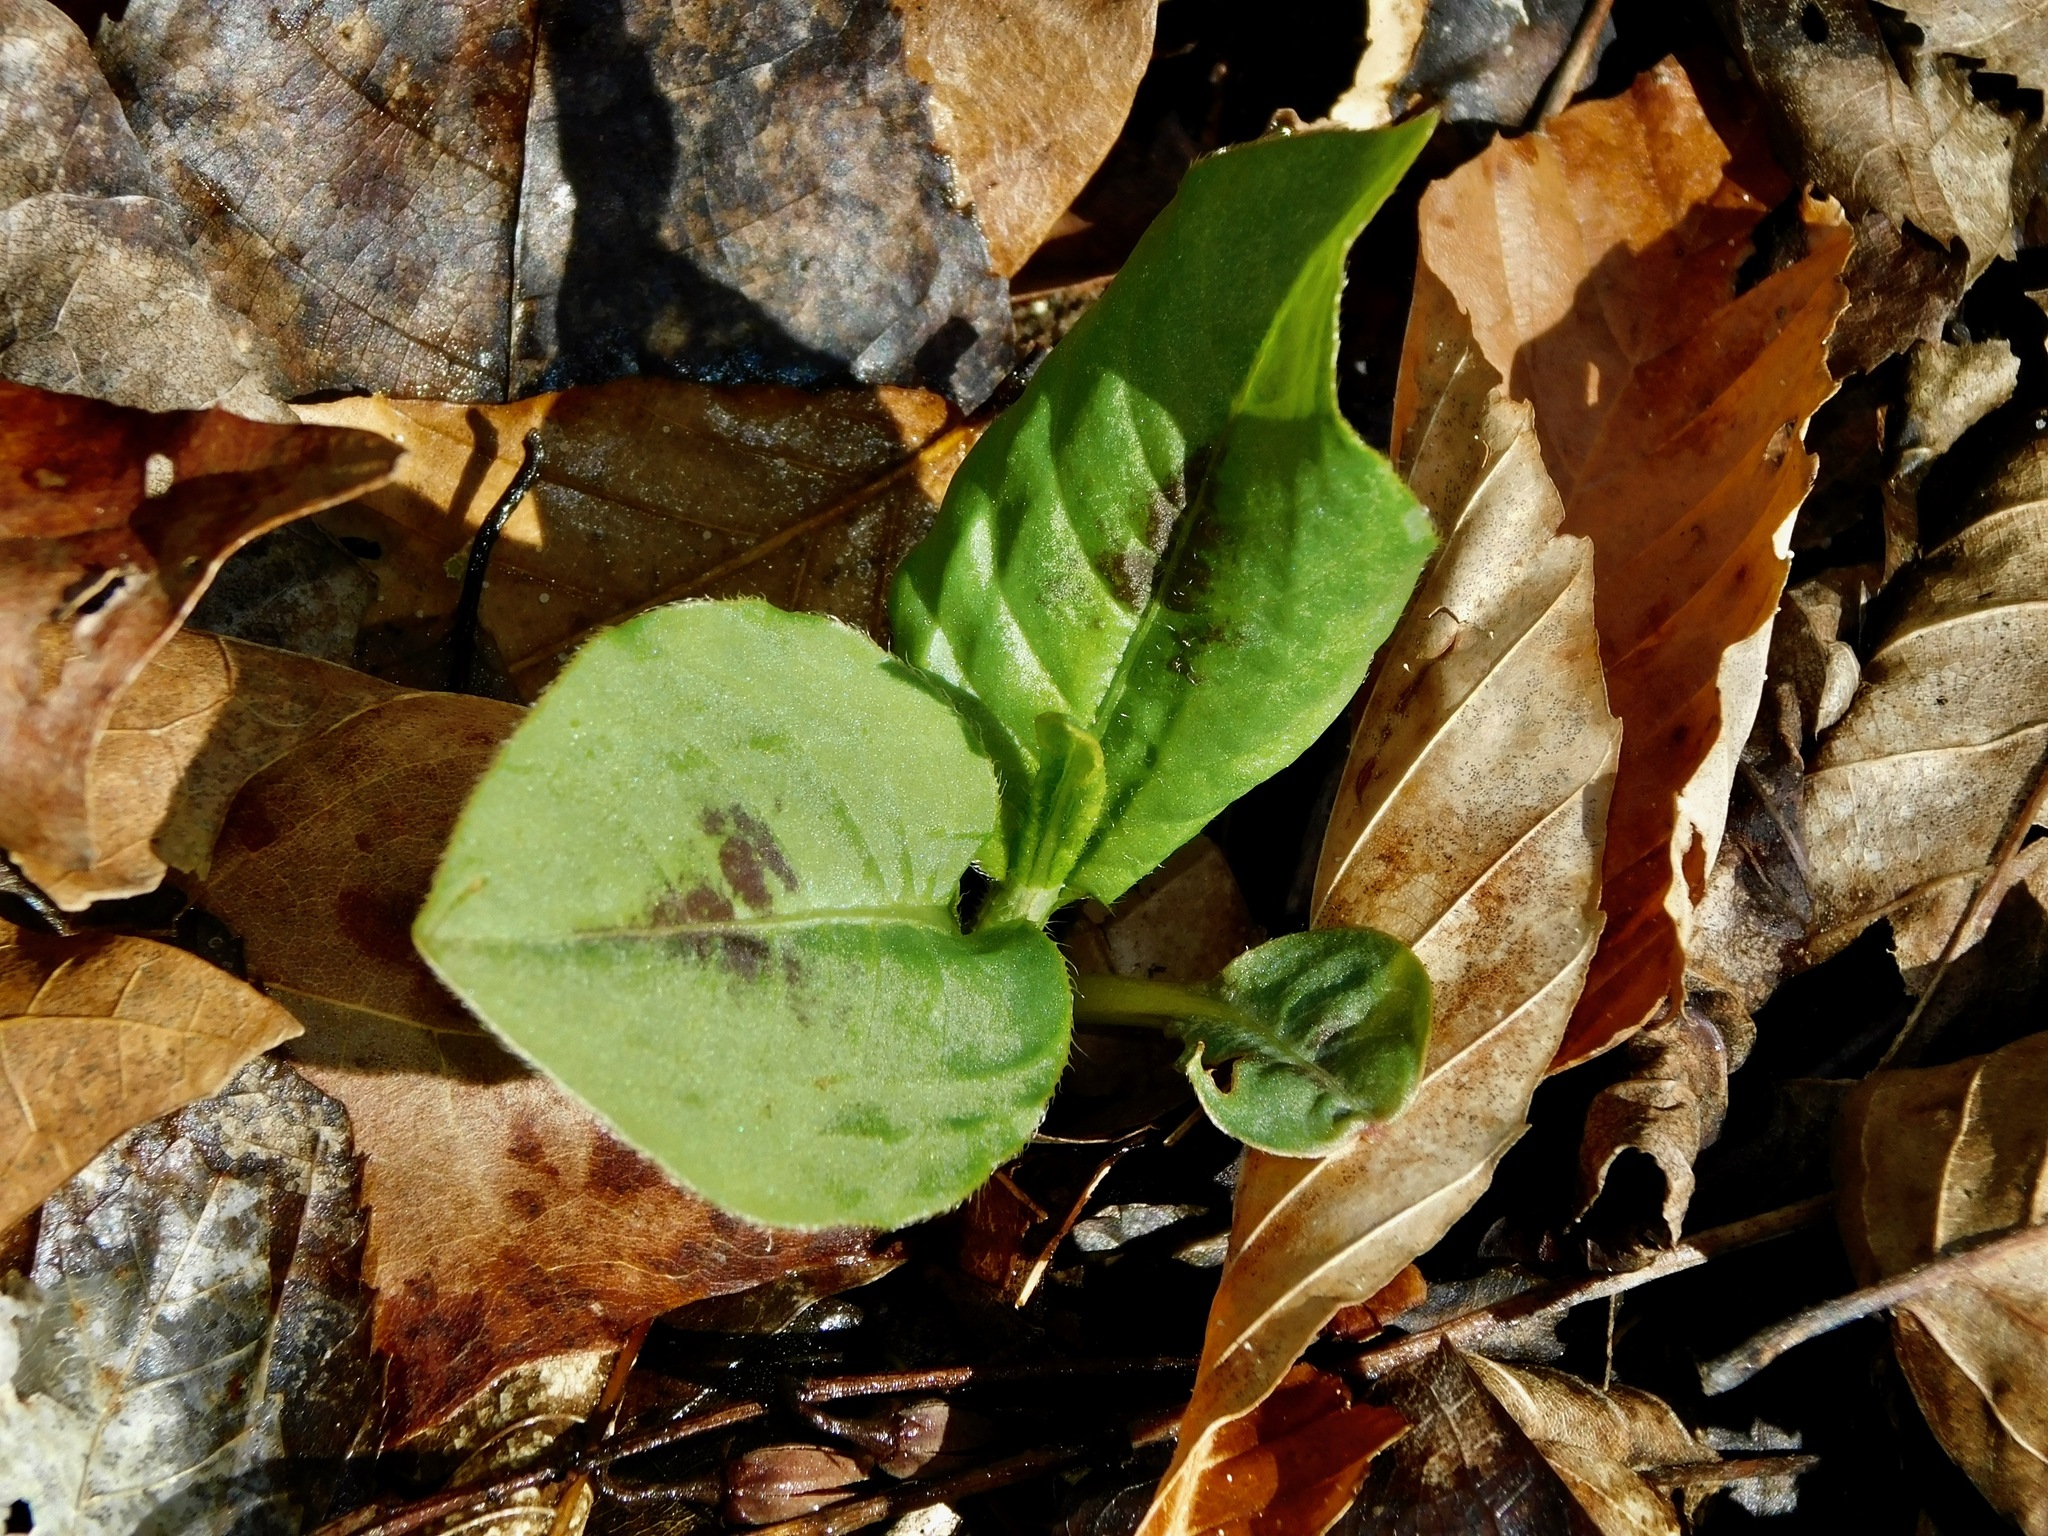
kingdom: Plantae
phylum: Tracheophyta
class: Magnoliopsida
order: Caryophyllales
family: Polygonaceae
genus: Persicaria
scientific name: Persicaria virginiana
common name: Jumpseed
